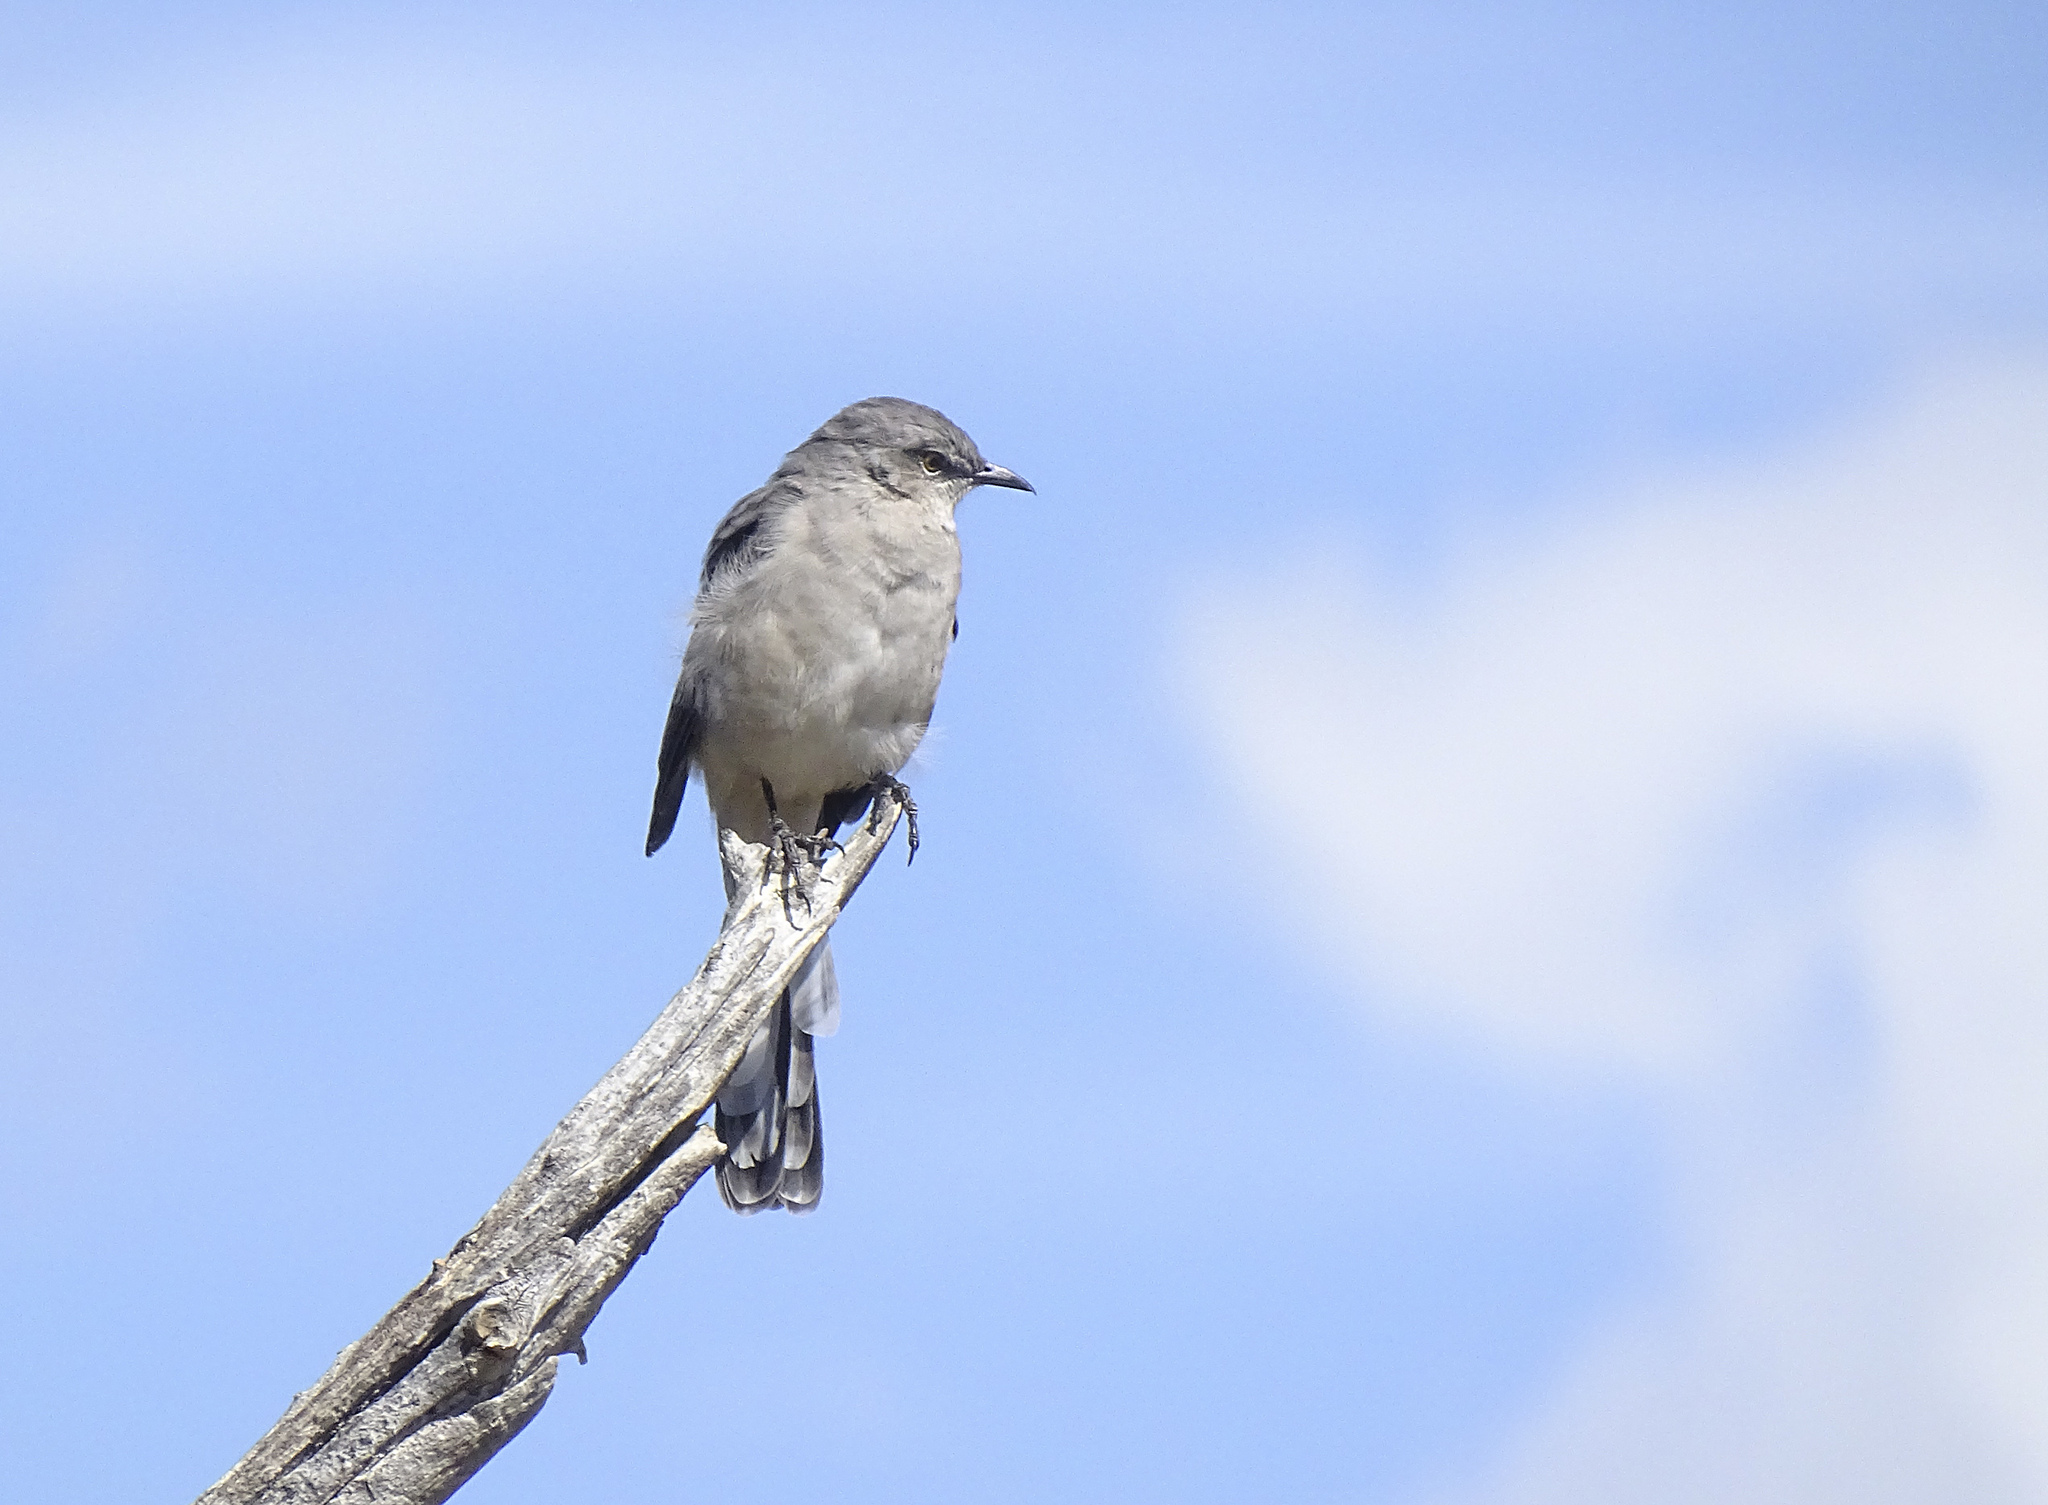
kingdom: Animalia
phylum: Chordata
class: Aves
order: Passeriformes
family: Mimidae
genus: Mimus
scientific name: Mimus polyglottos
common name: Northern mockingbird
